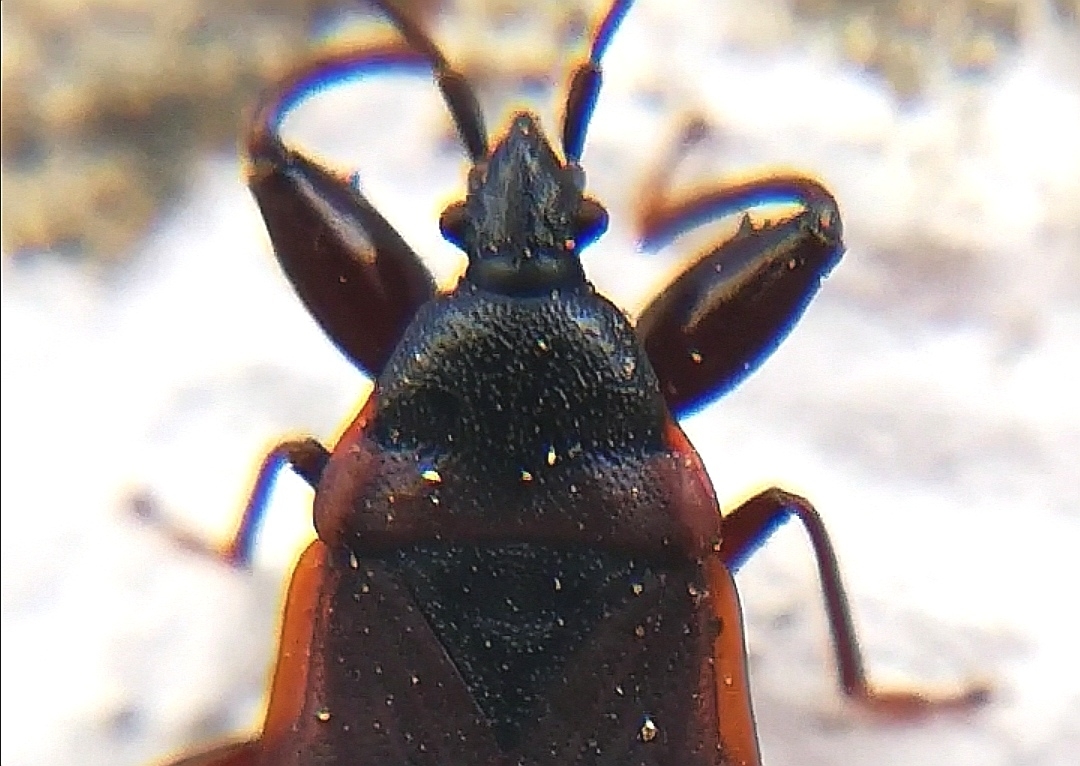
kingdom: Animalia
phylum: Arthropoda
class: Insecta
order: Hemiptera
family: Rhyparochromidae
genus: Gastrodes
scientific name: Gastrodes grossipes
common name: Pine cone bug
